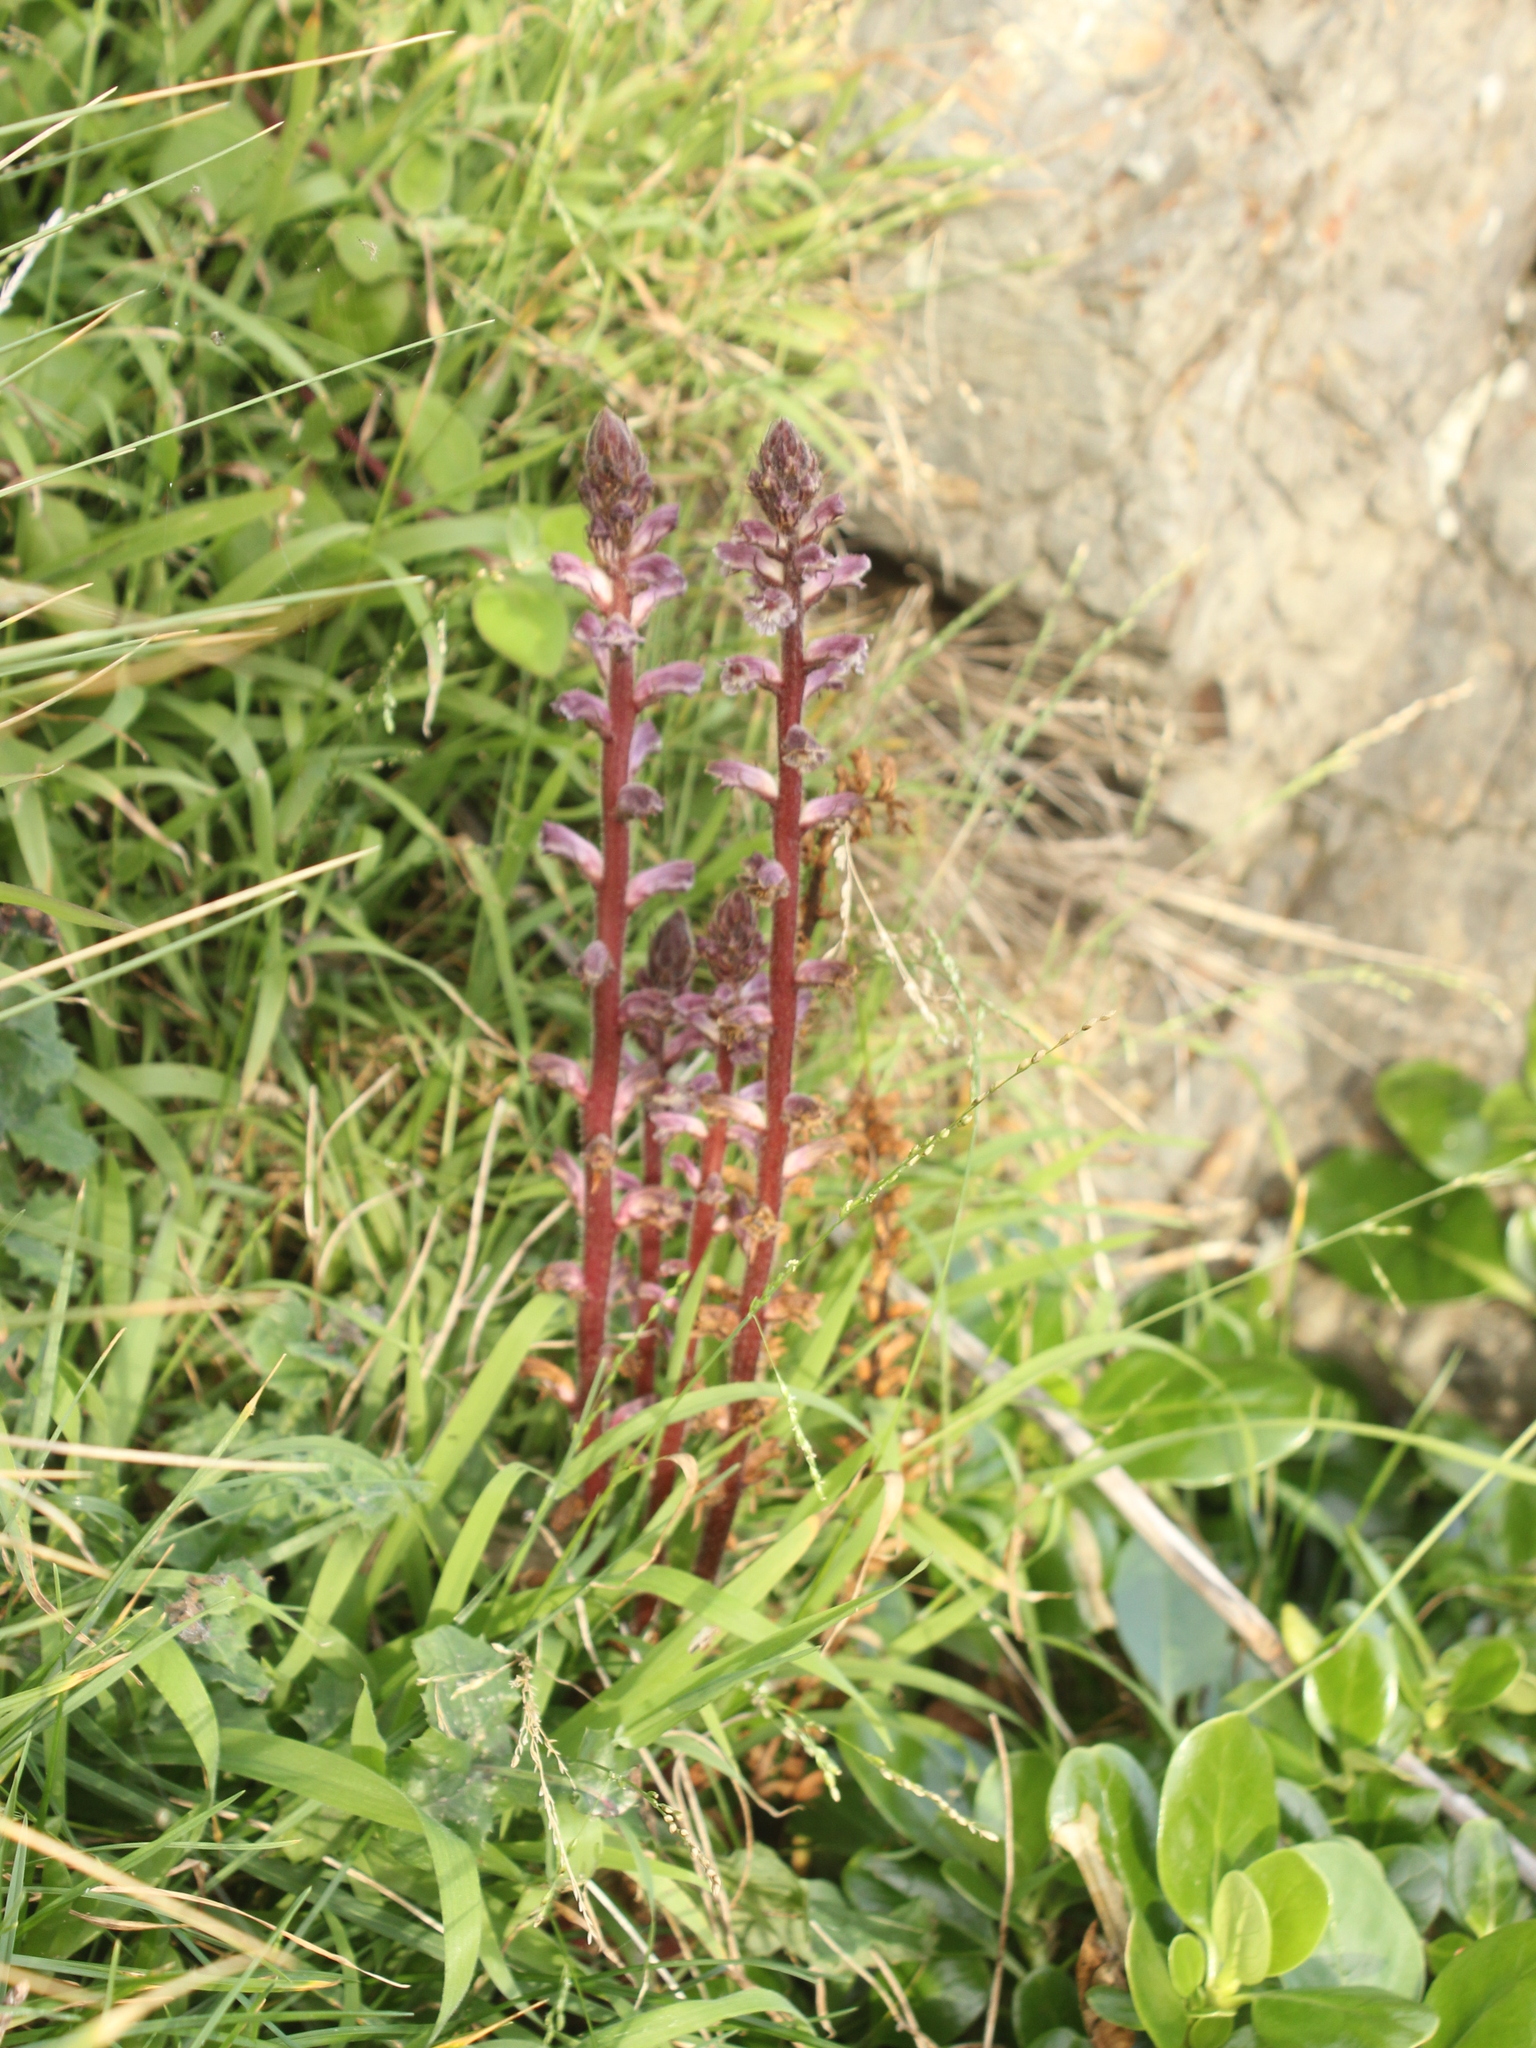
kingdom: Plantae
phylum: Tracheophyta
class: Magnoliopsida
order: Lamiales
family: Orobanchaceae
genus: Orobanche
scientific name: Orobanche minor
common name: Common broomrape
